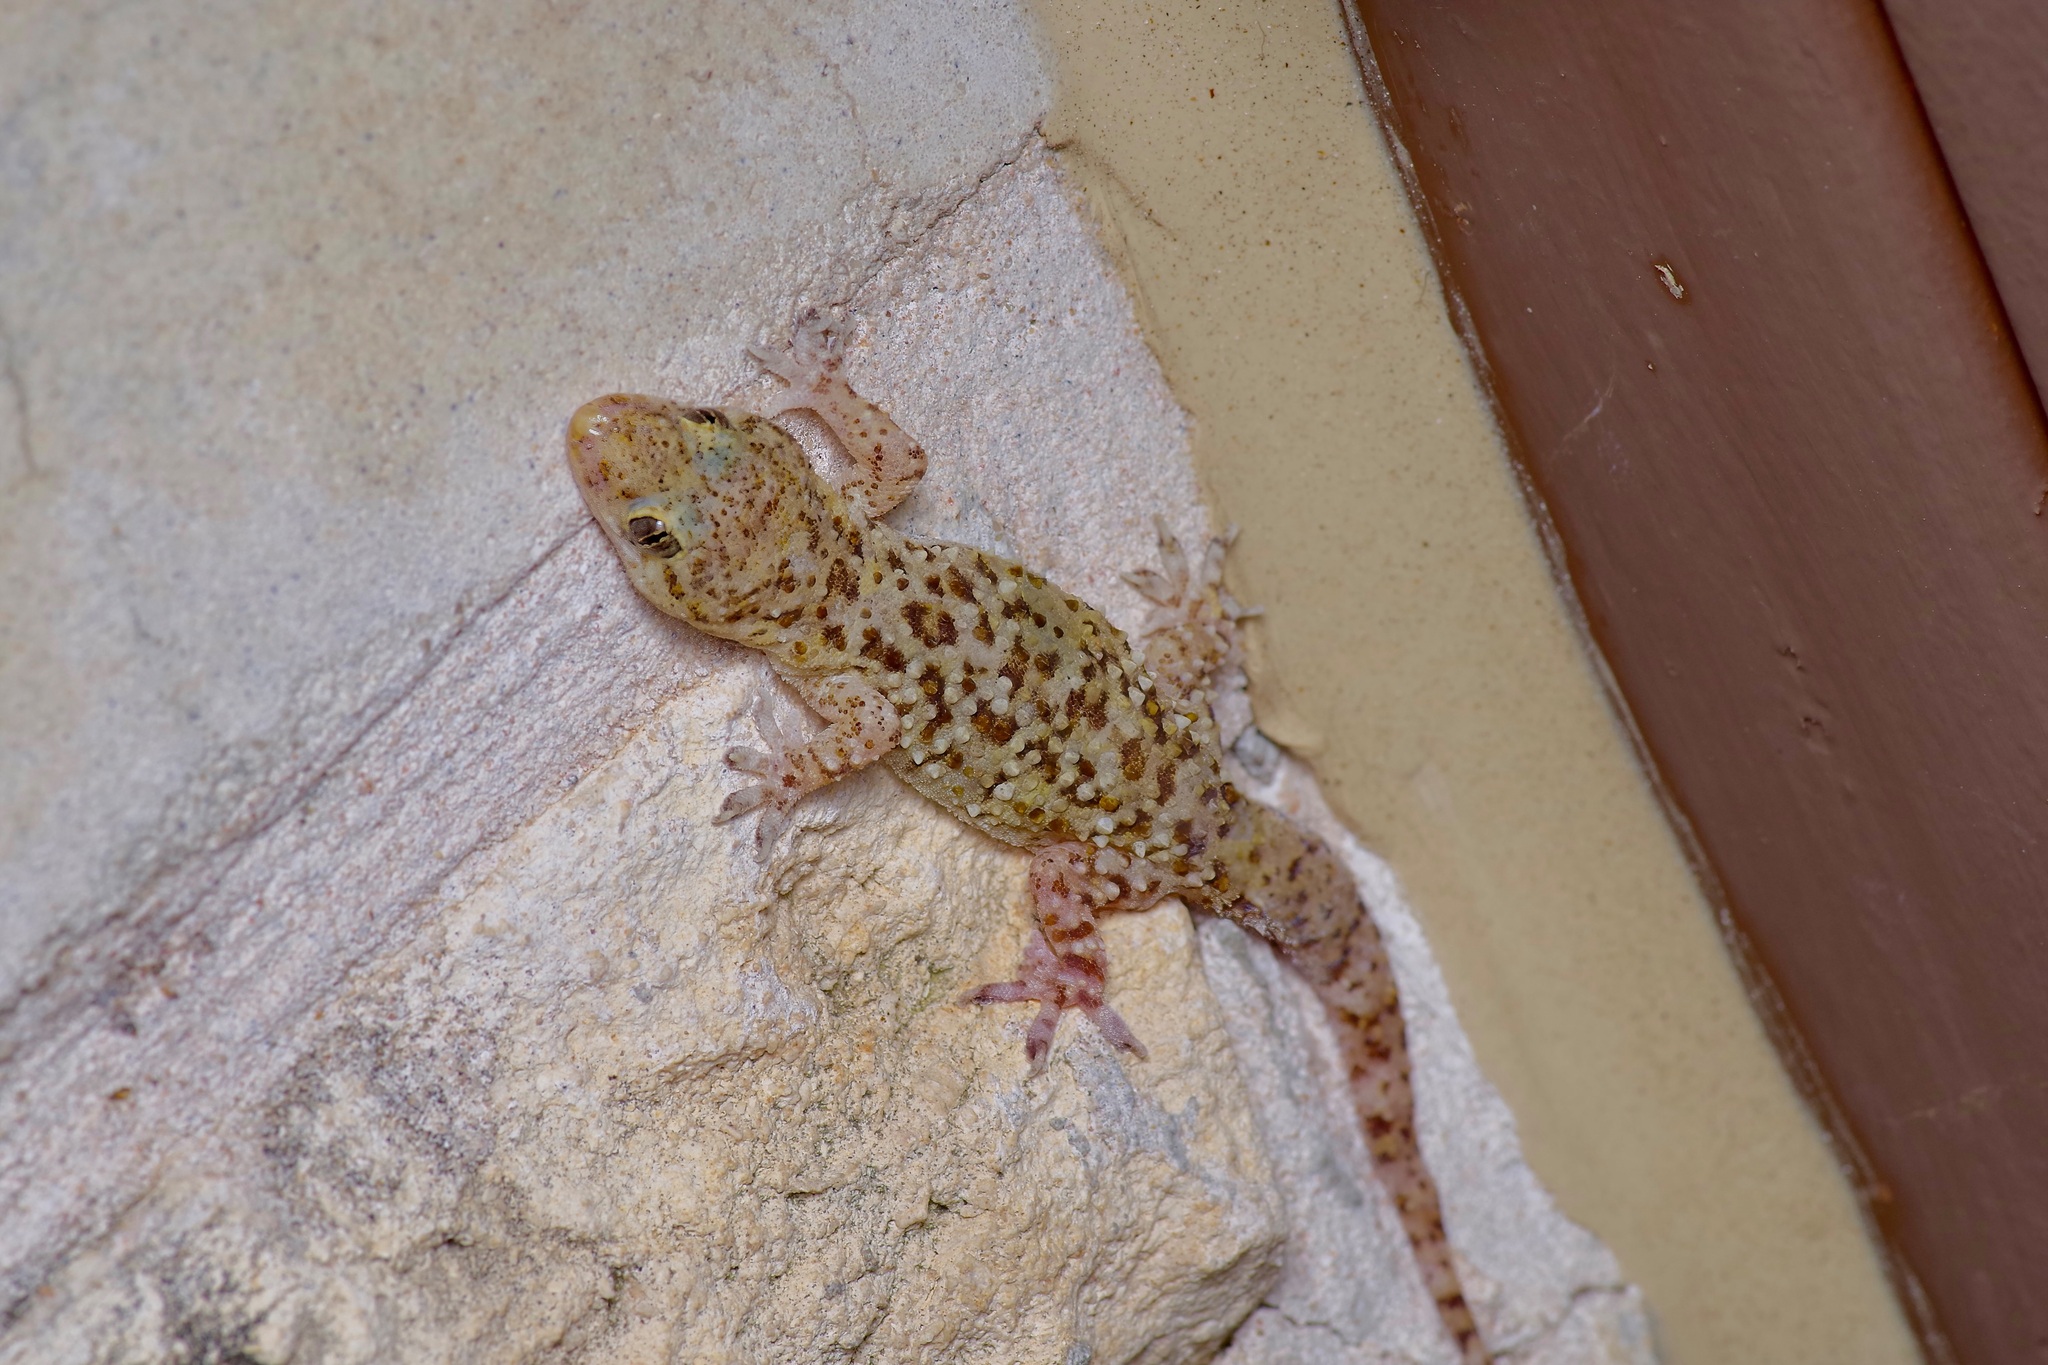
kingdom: Animalia
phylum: Chordata
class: Squamata
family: Gekkonidae
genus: Hemidactylus
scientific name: Hemidactylus turcicus
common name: Turkish gecko
